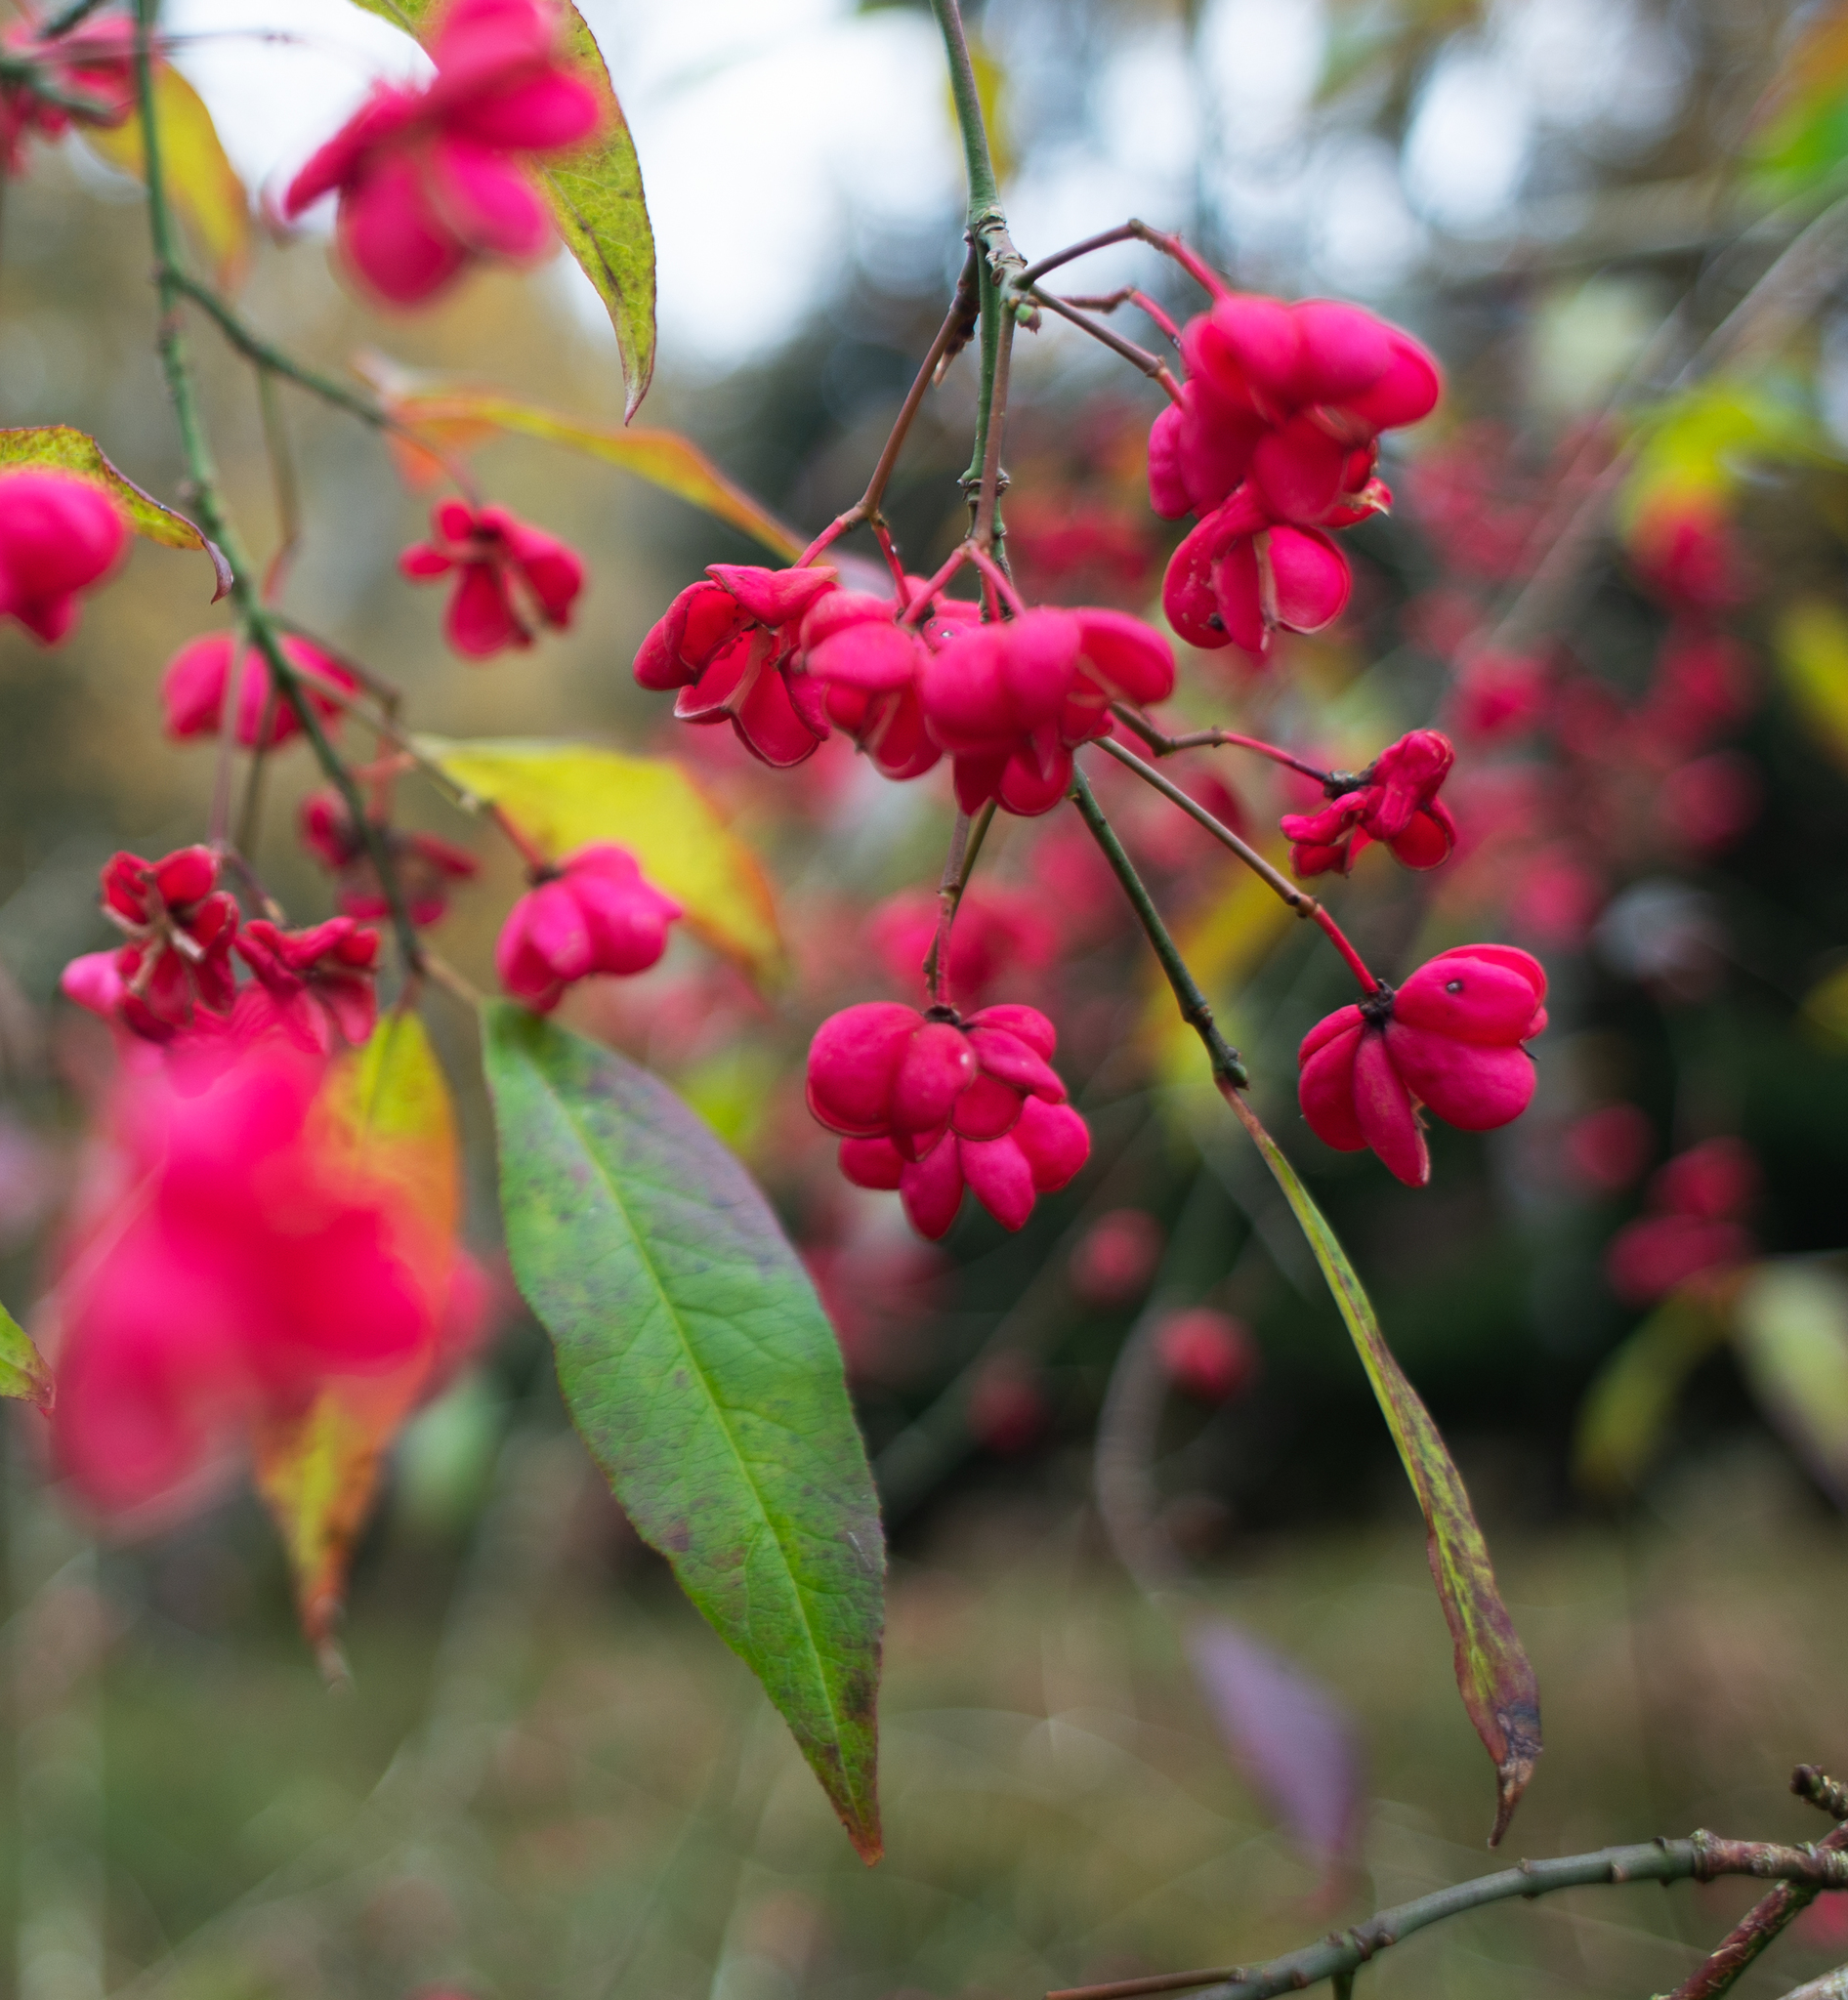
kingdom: Plantae
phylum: Tracheophyta
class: Magnoliopsida
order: Celastrales
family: Celastraceae
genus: Euonymus
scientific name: Euonymus europaeus
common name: Spindle
